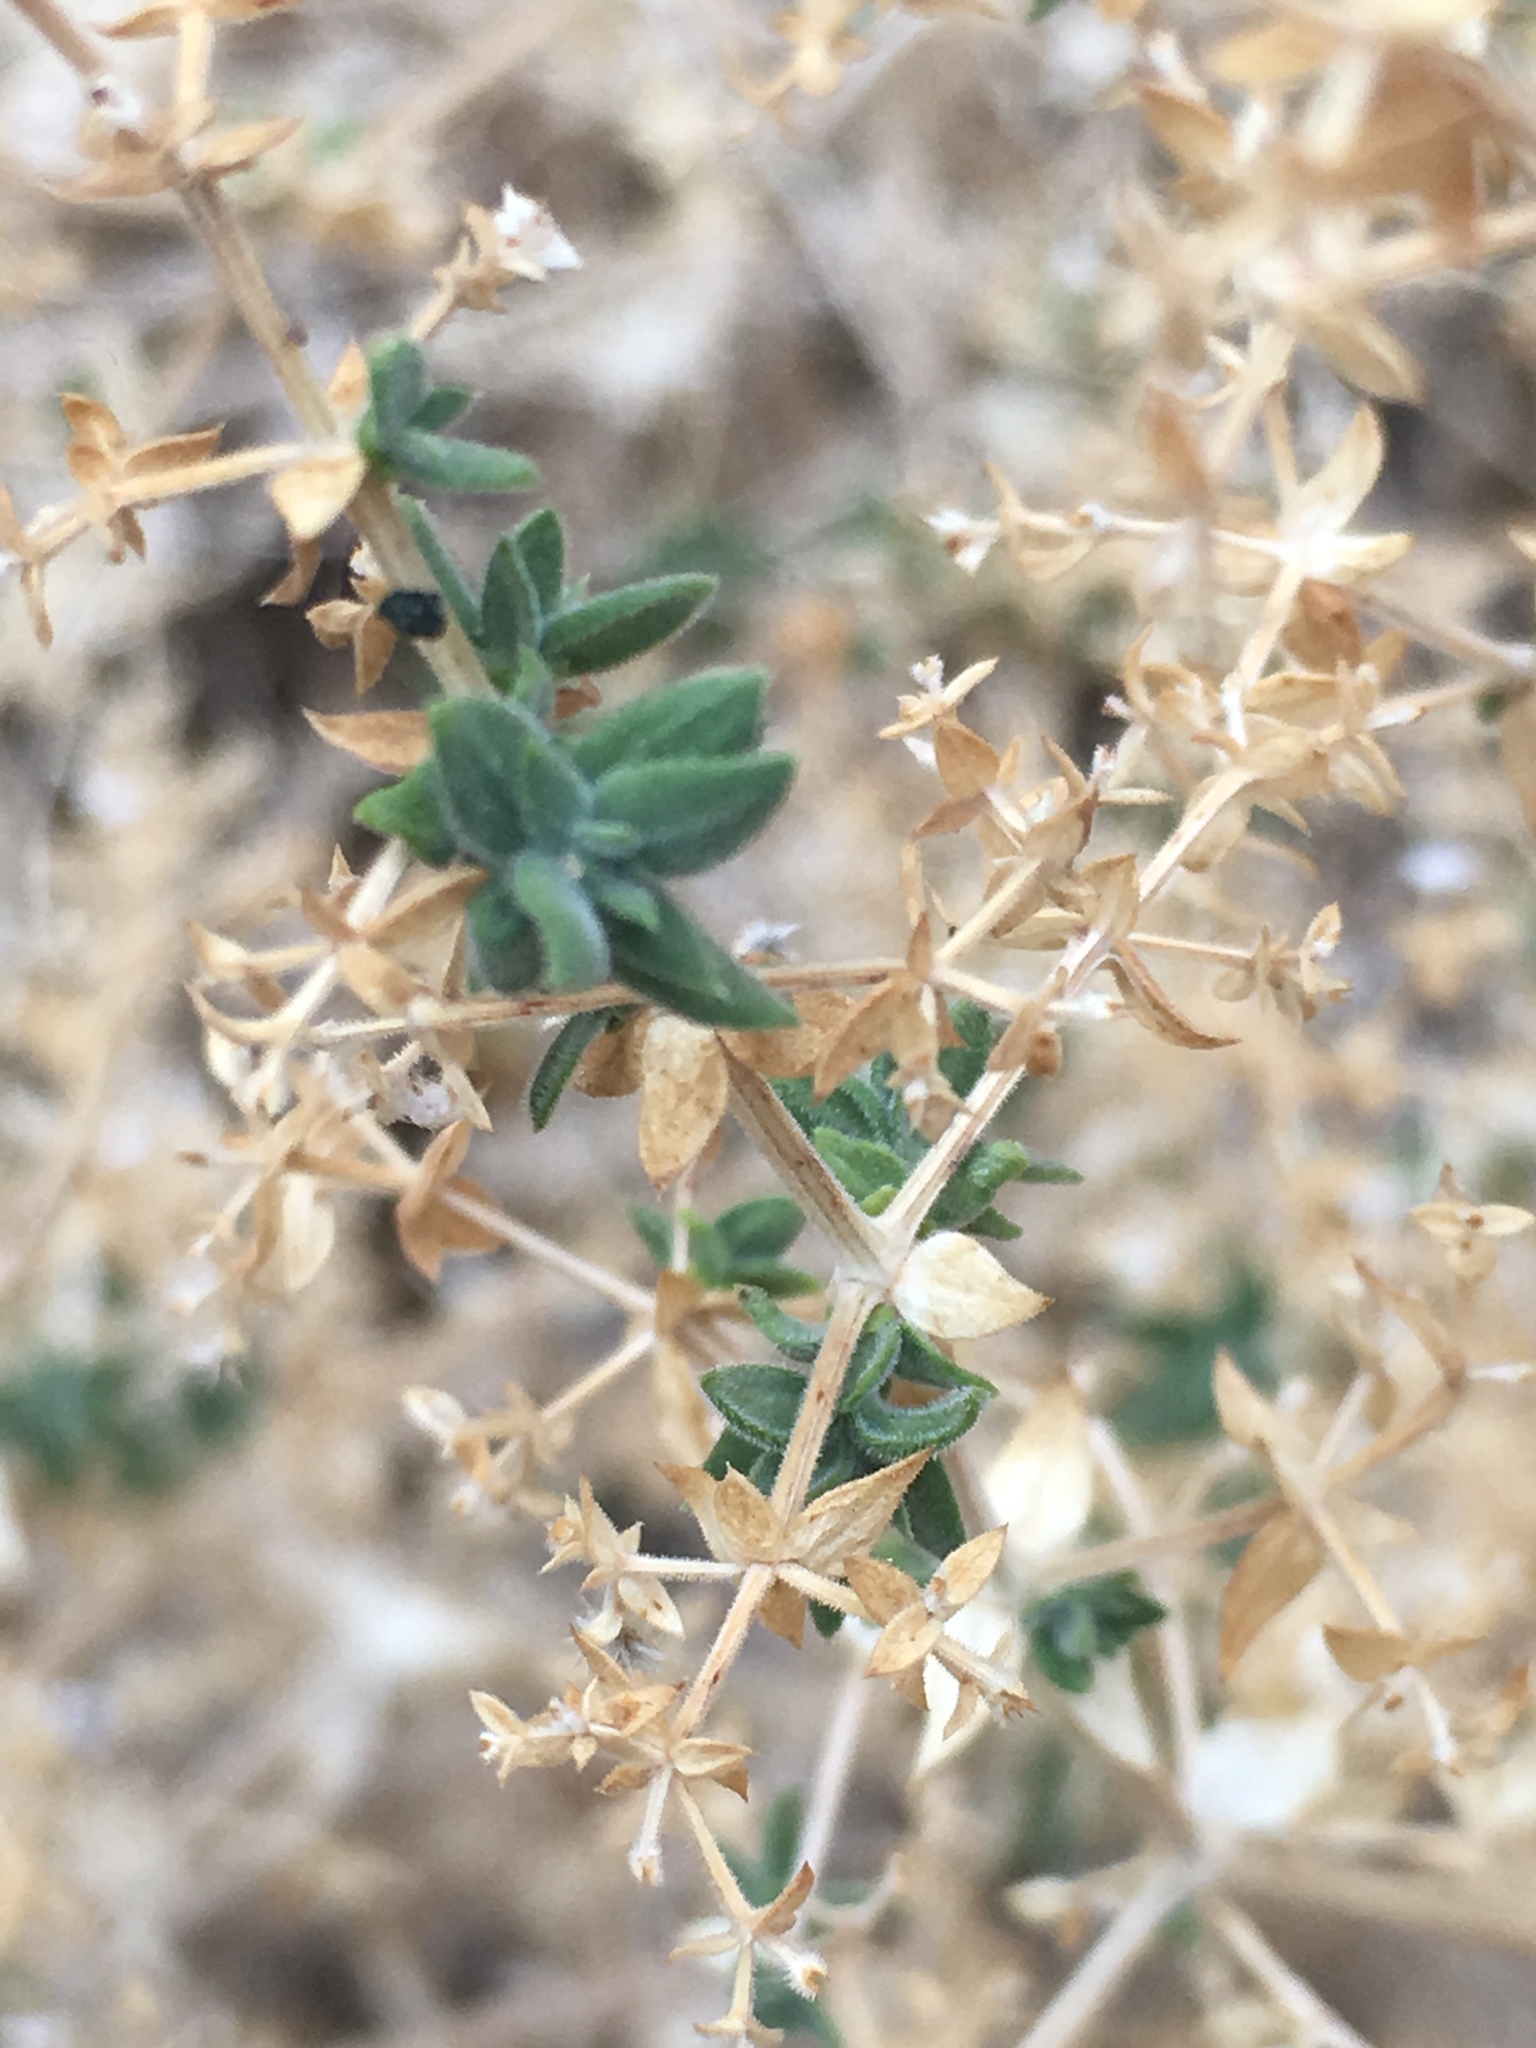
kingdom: Plantae
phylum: Tracheophyta
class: Magnoliopsida
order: Gentianales
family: Rubiaceae
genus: Galium
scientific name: Galium stellatum
